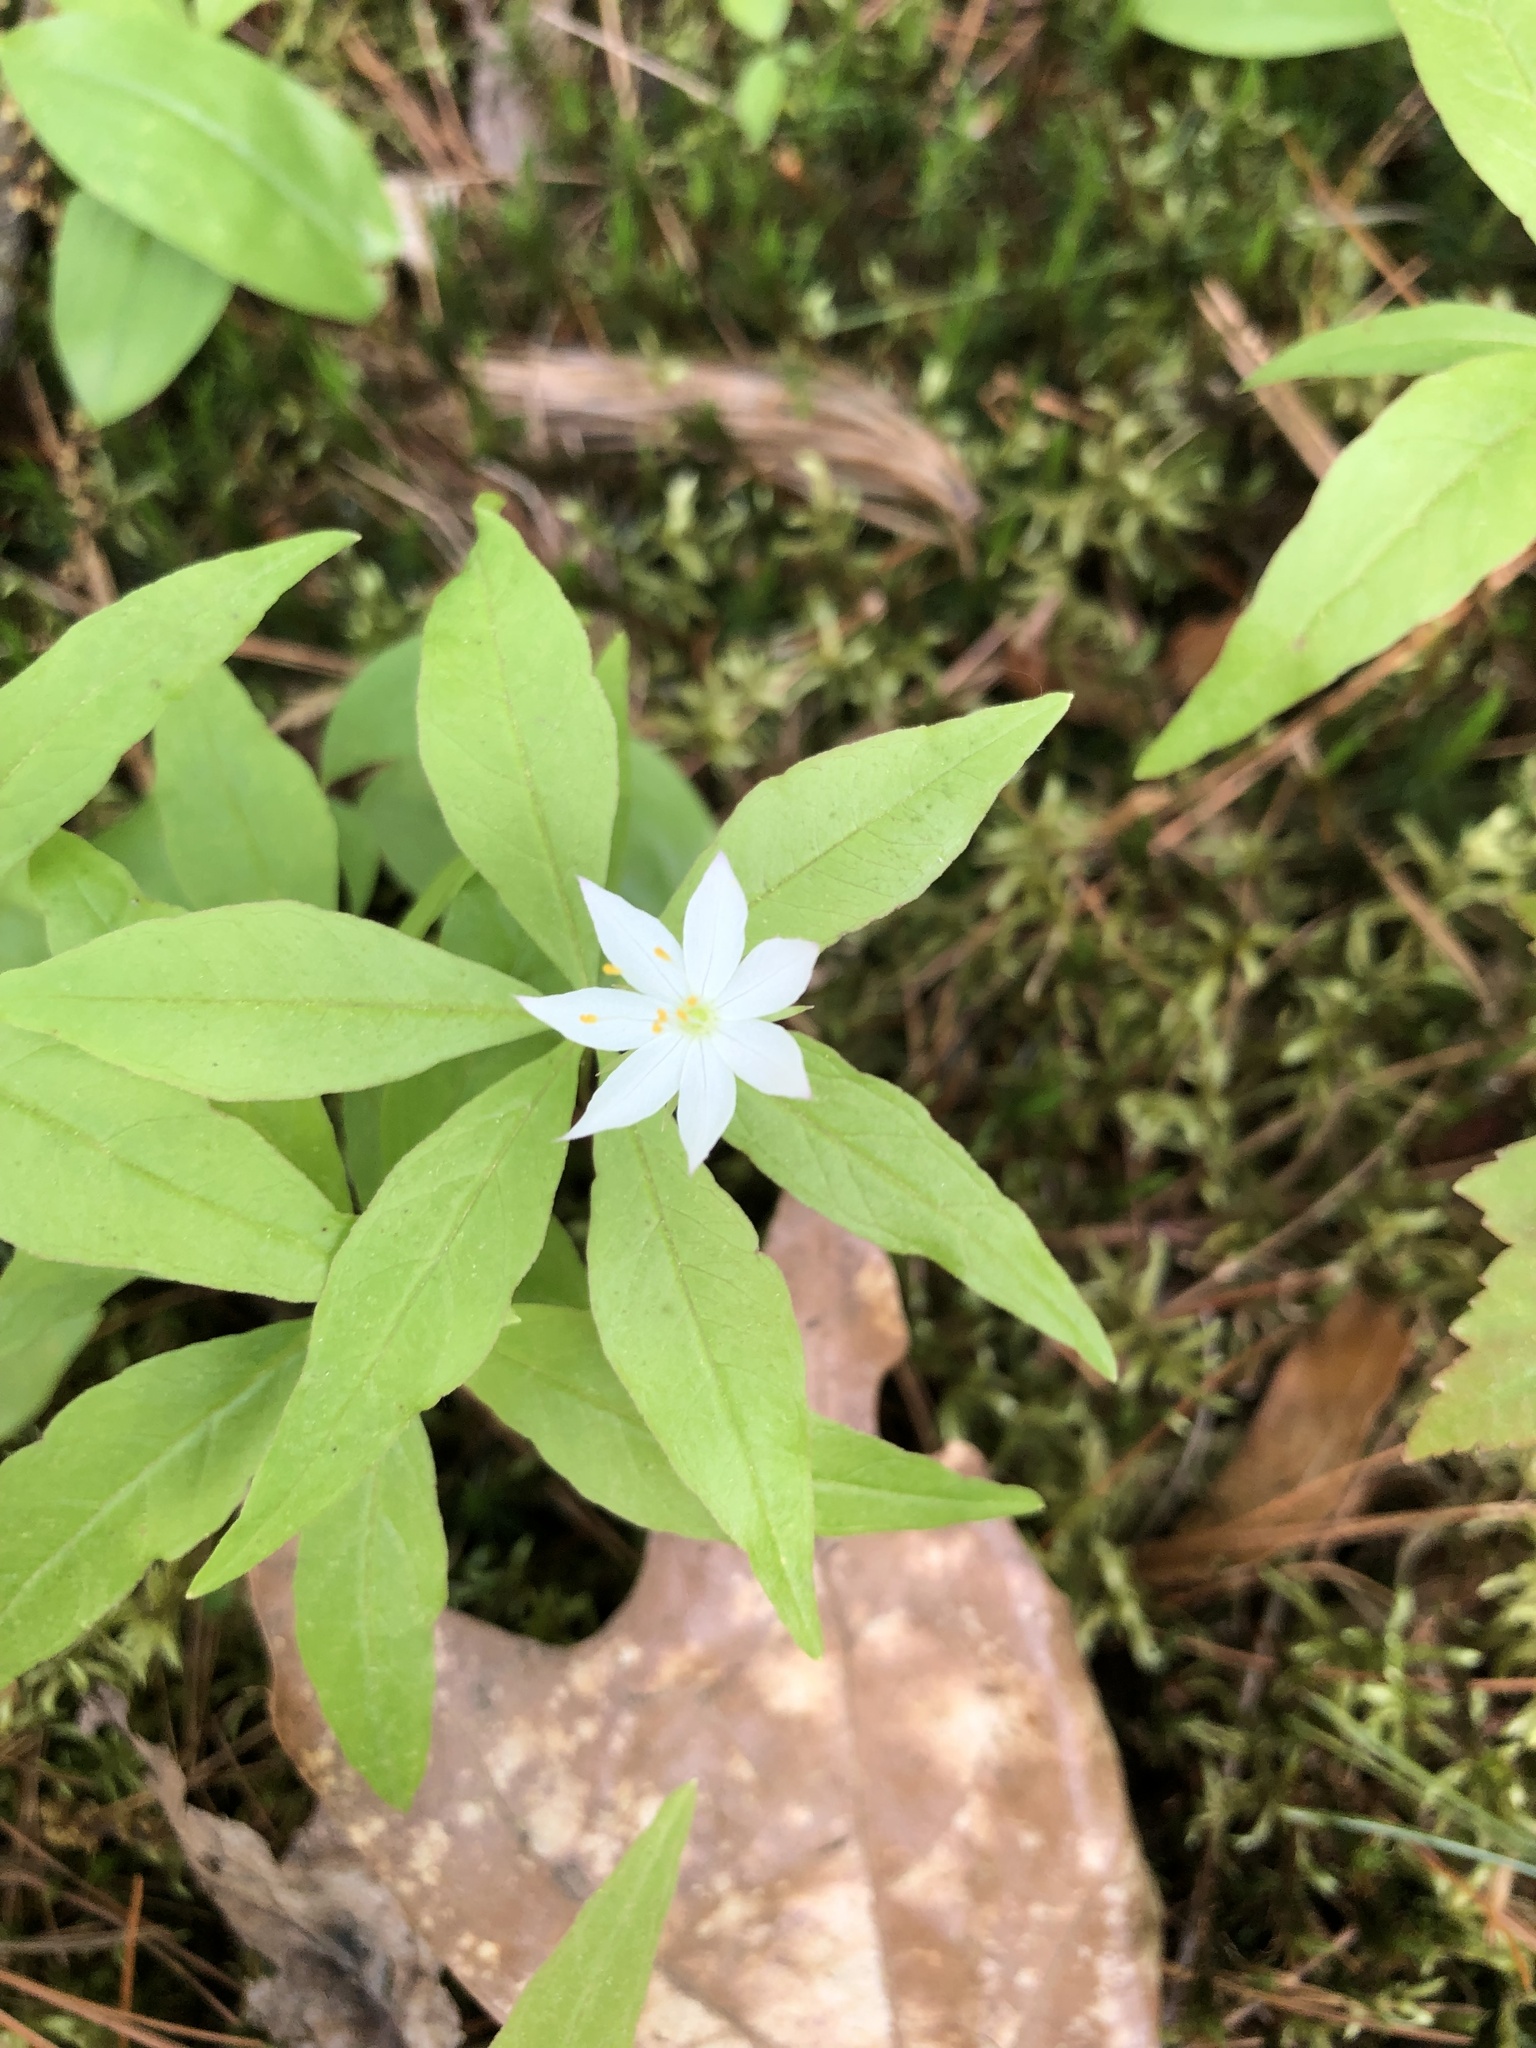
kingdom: Plantae
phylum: Tracheophyta
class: Magnoliopsida
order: Ericales
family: Primulaceae
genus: Lysimachia
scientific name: Lysimachia borealis
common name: American starflower
